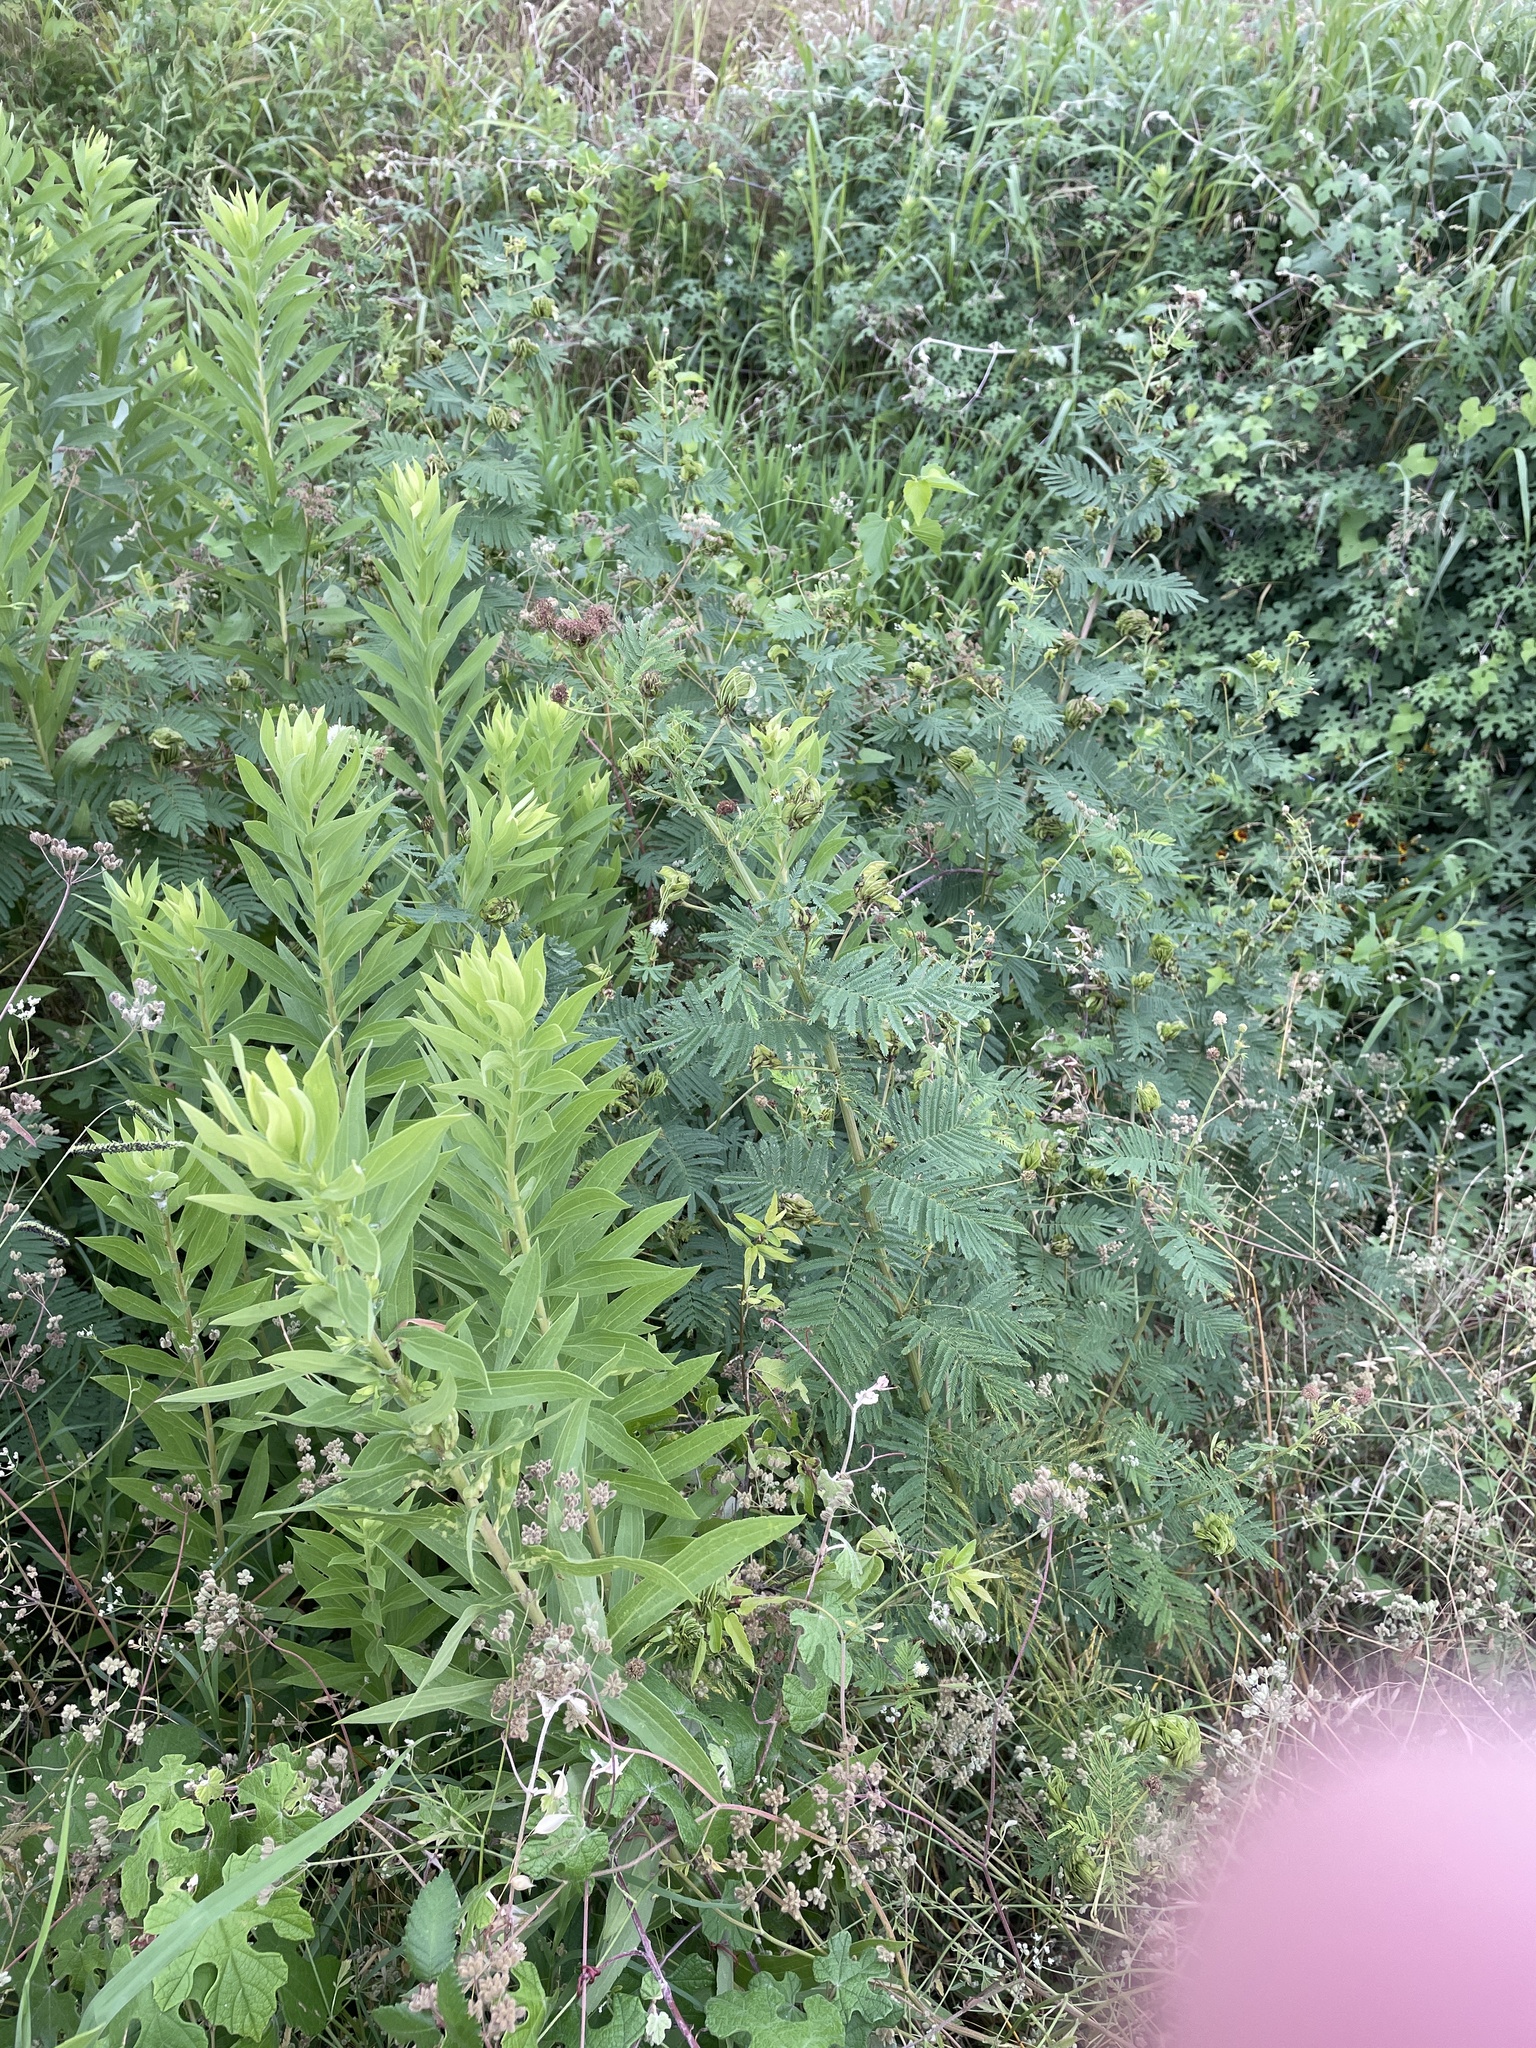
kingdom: Plantae
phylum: Tracheophyta
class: Magnoliopsida
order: Fabales
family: Fabaceae
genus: Desmanthus
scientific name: Desmanthus illinoensis
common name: Illinois bundle-flower
